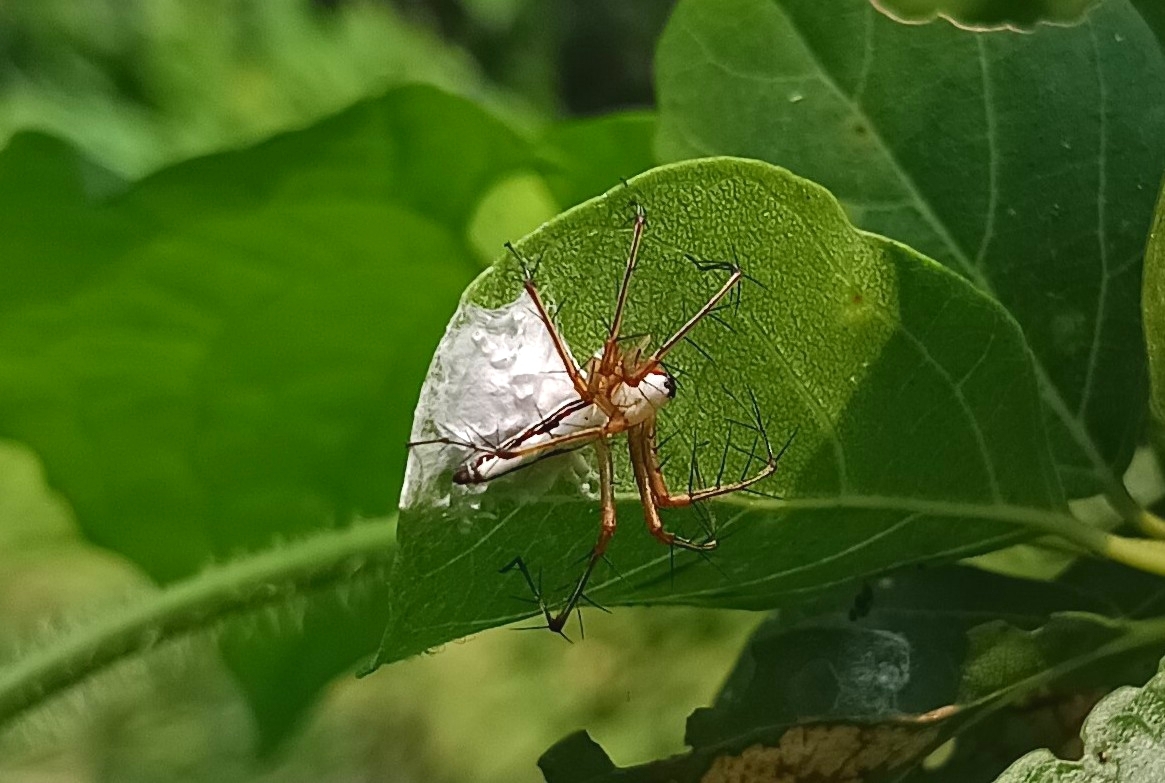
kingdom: Animalia
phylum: Arthropoda
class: Arachnida
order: Araneae
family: Oxyopidae
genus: Oxyopes
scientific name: Oxyopes shweta
